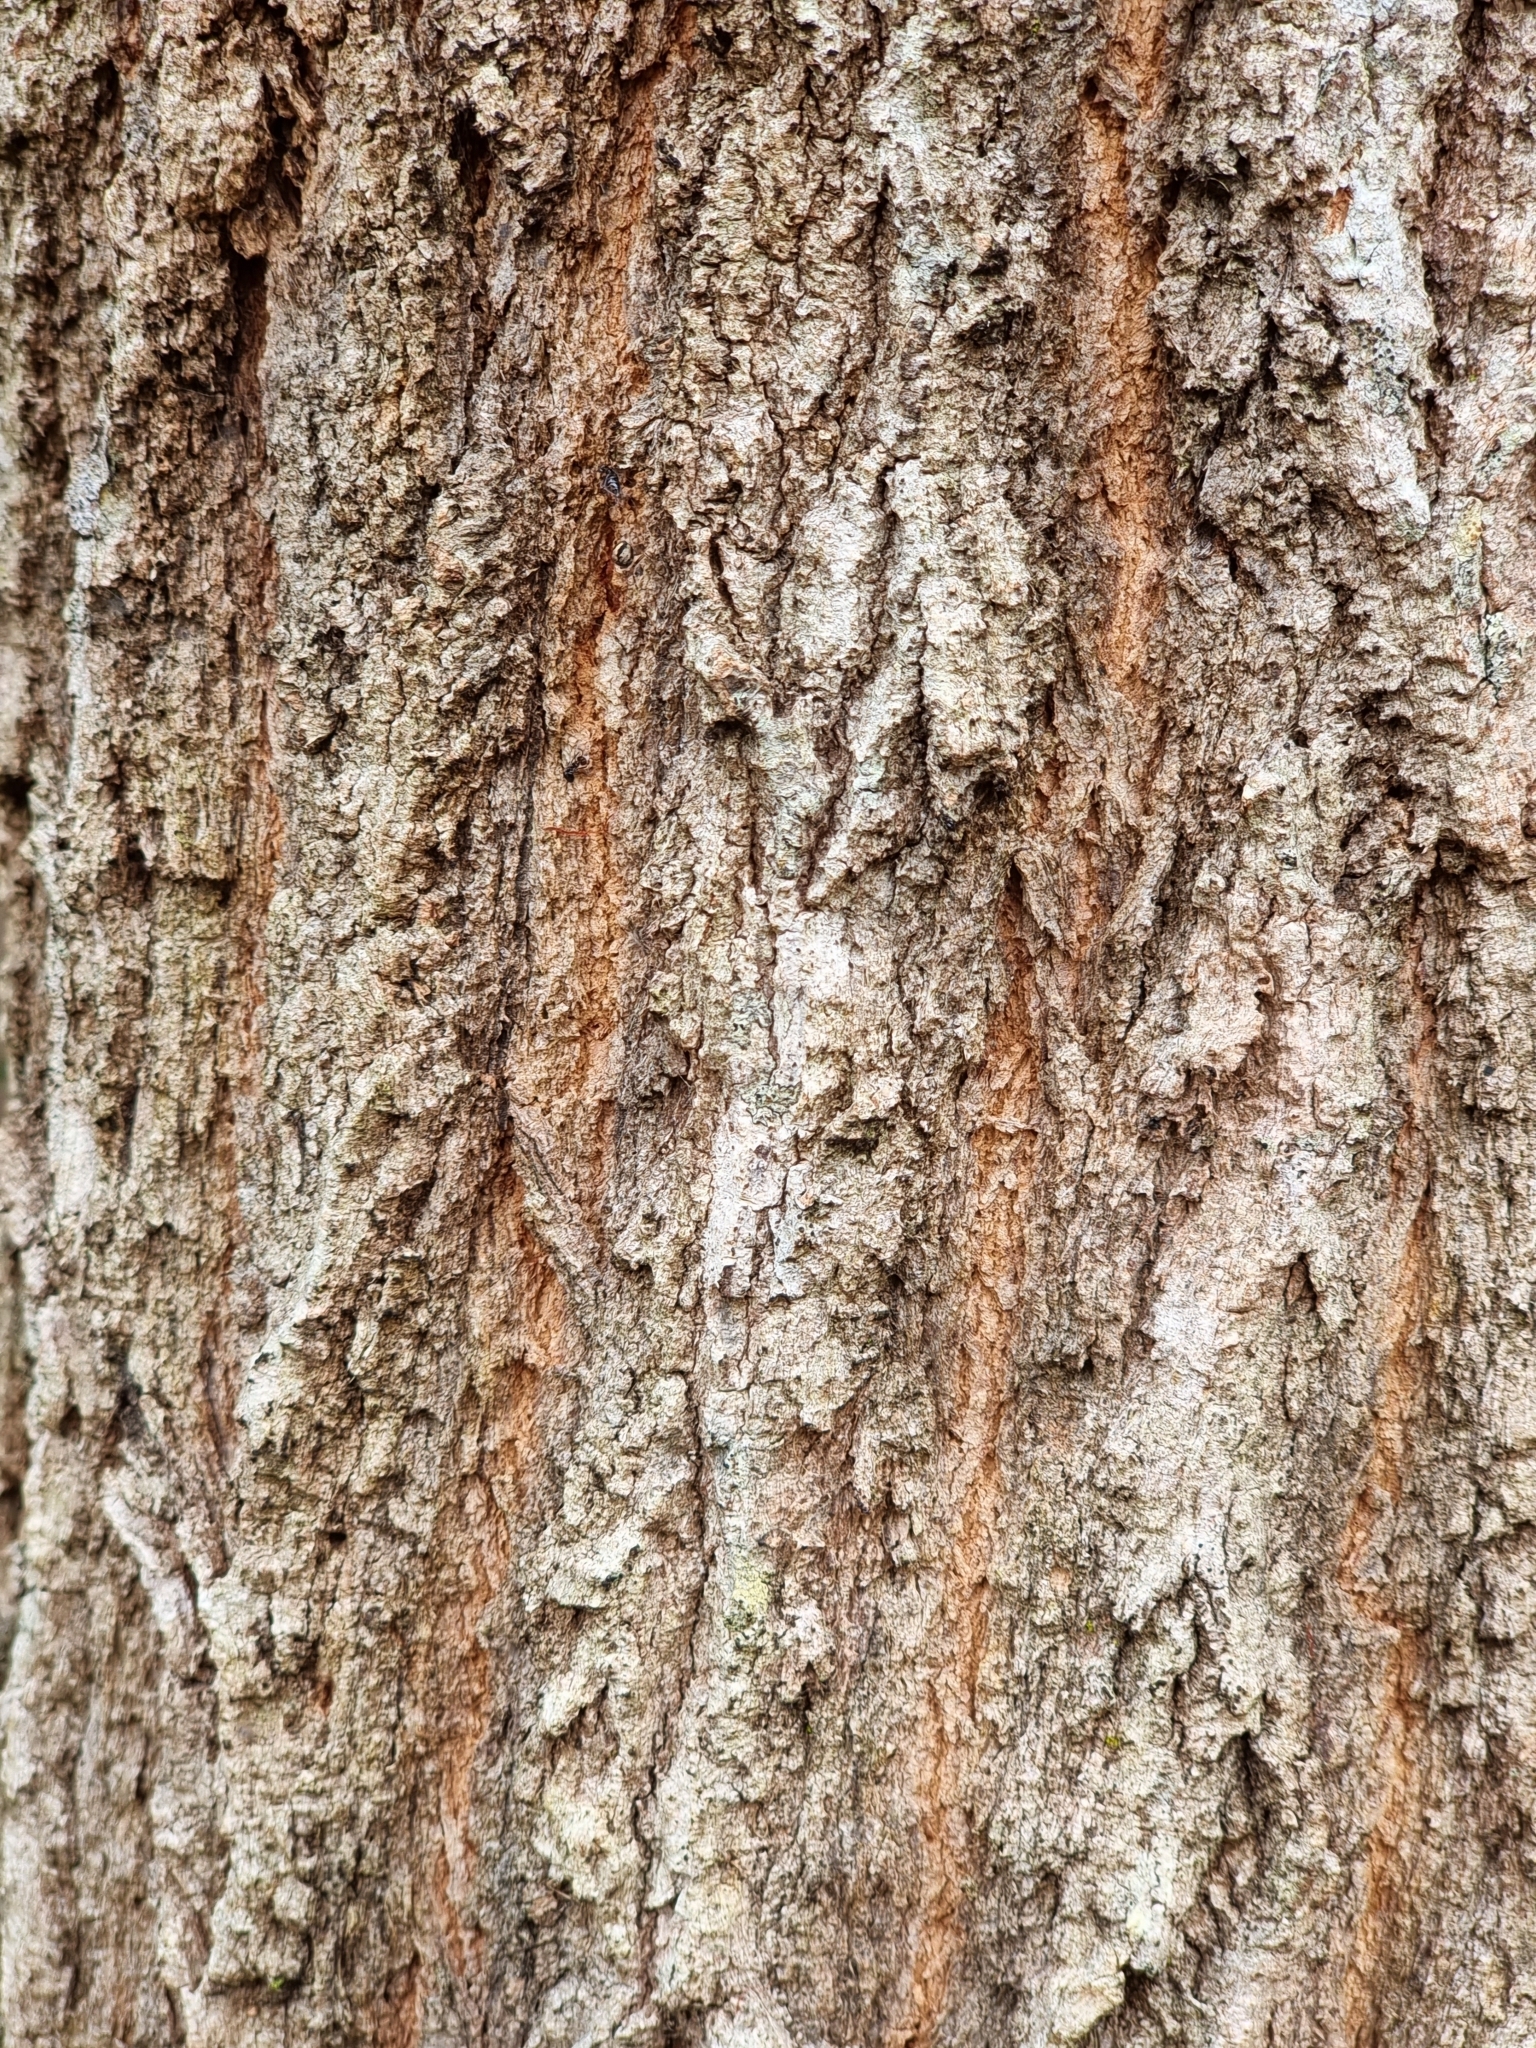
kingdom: Plantae
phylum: Tracheophyta
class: Magnoliopsida
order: Myrtales
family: Myrtaceae
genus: Eucalyptus
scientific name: Eucalyptus siderophloia
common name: Broad-leafed-ironbark
